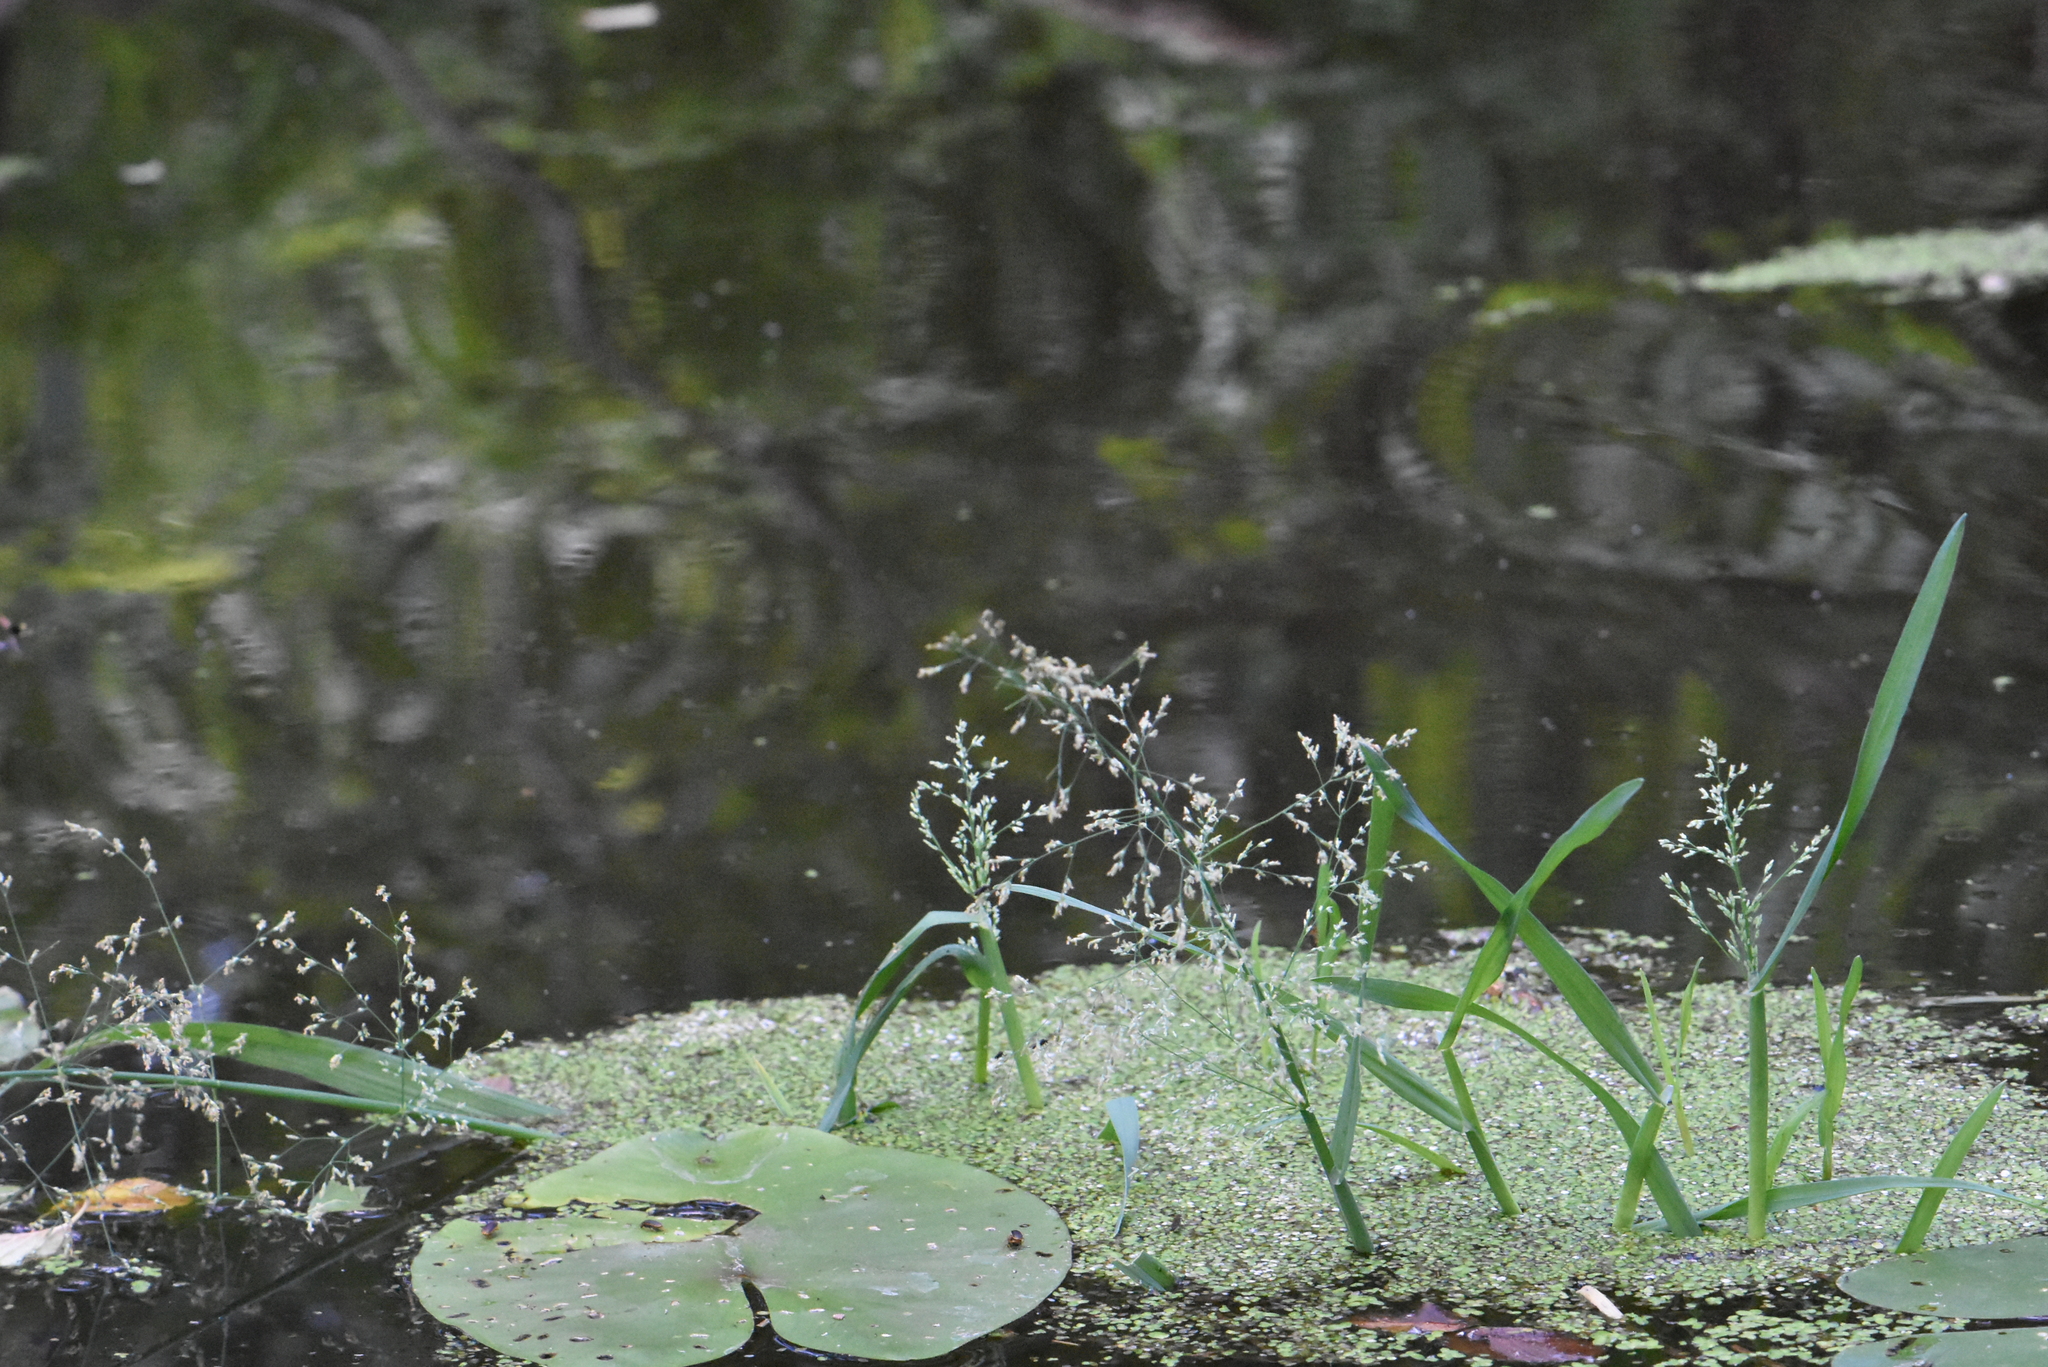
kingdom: Plantae
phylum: Tracheophyta
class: Liliopsida
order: Poales
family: Poaceae
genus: Catabrosa
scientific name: Catabrosa aquatica
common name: Whorl-grass
